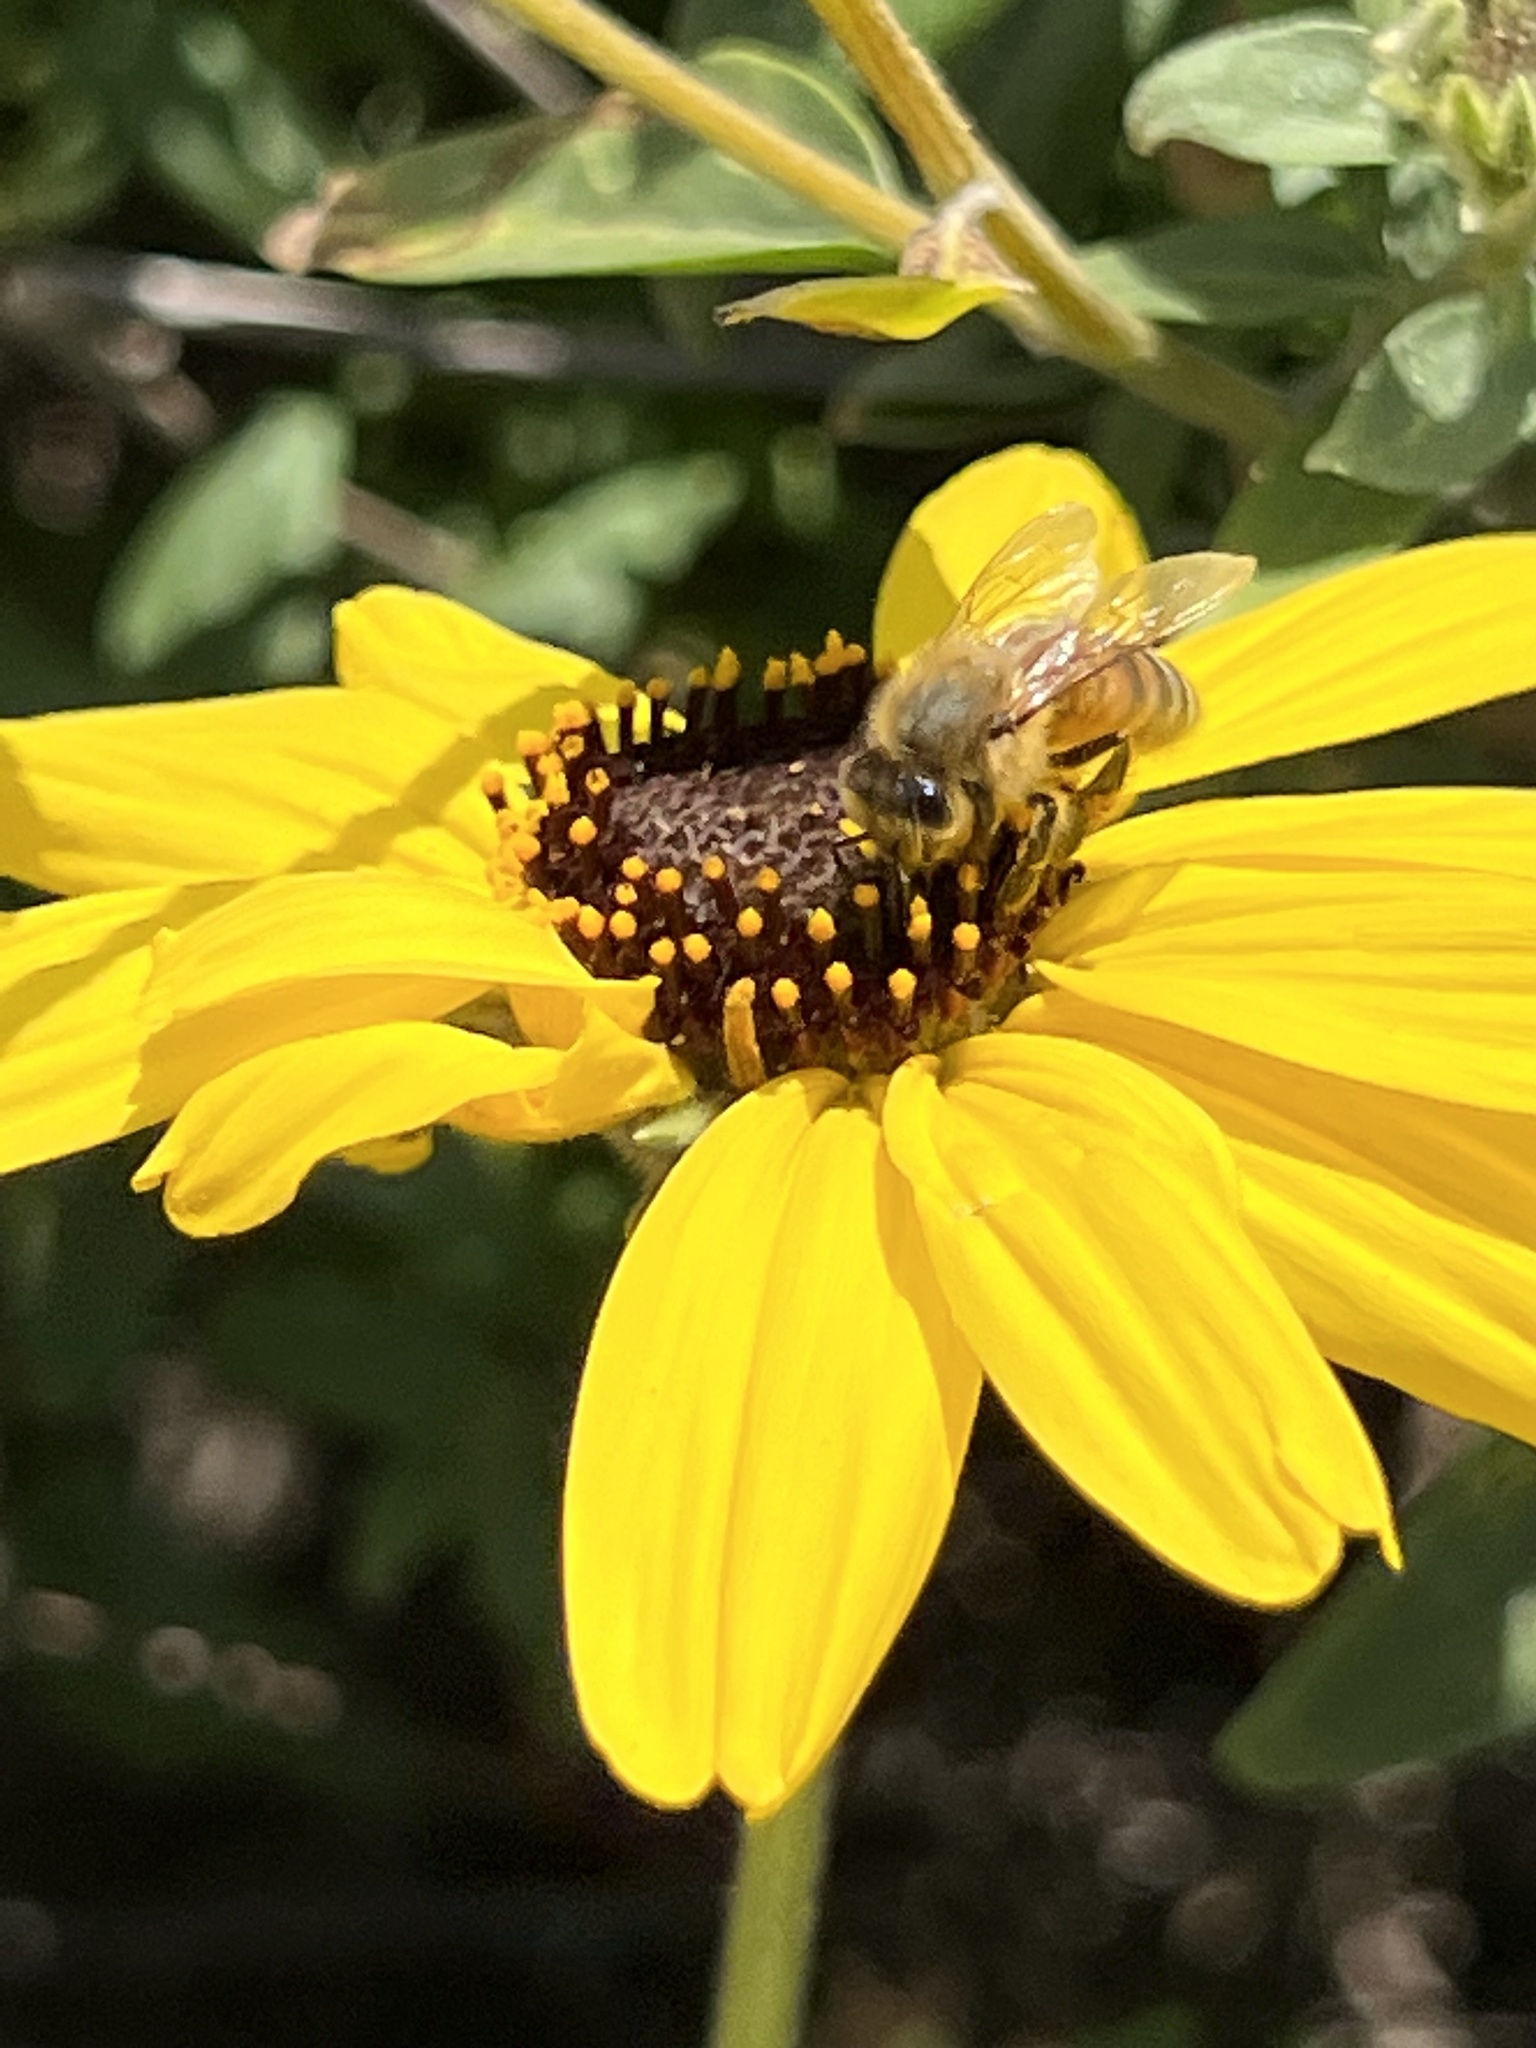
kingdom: Animalia
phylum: Arthropoda
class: Insecta
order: Hymenoptera
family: Apidae
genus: Apis
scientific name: Apis mellifera
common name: Honey bee
